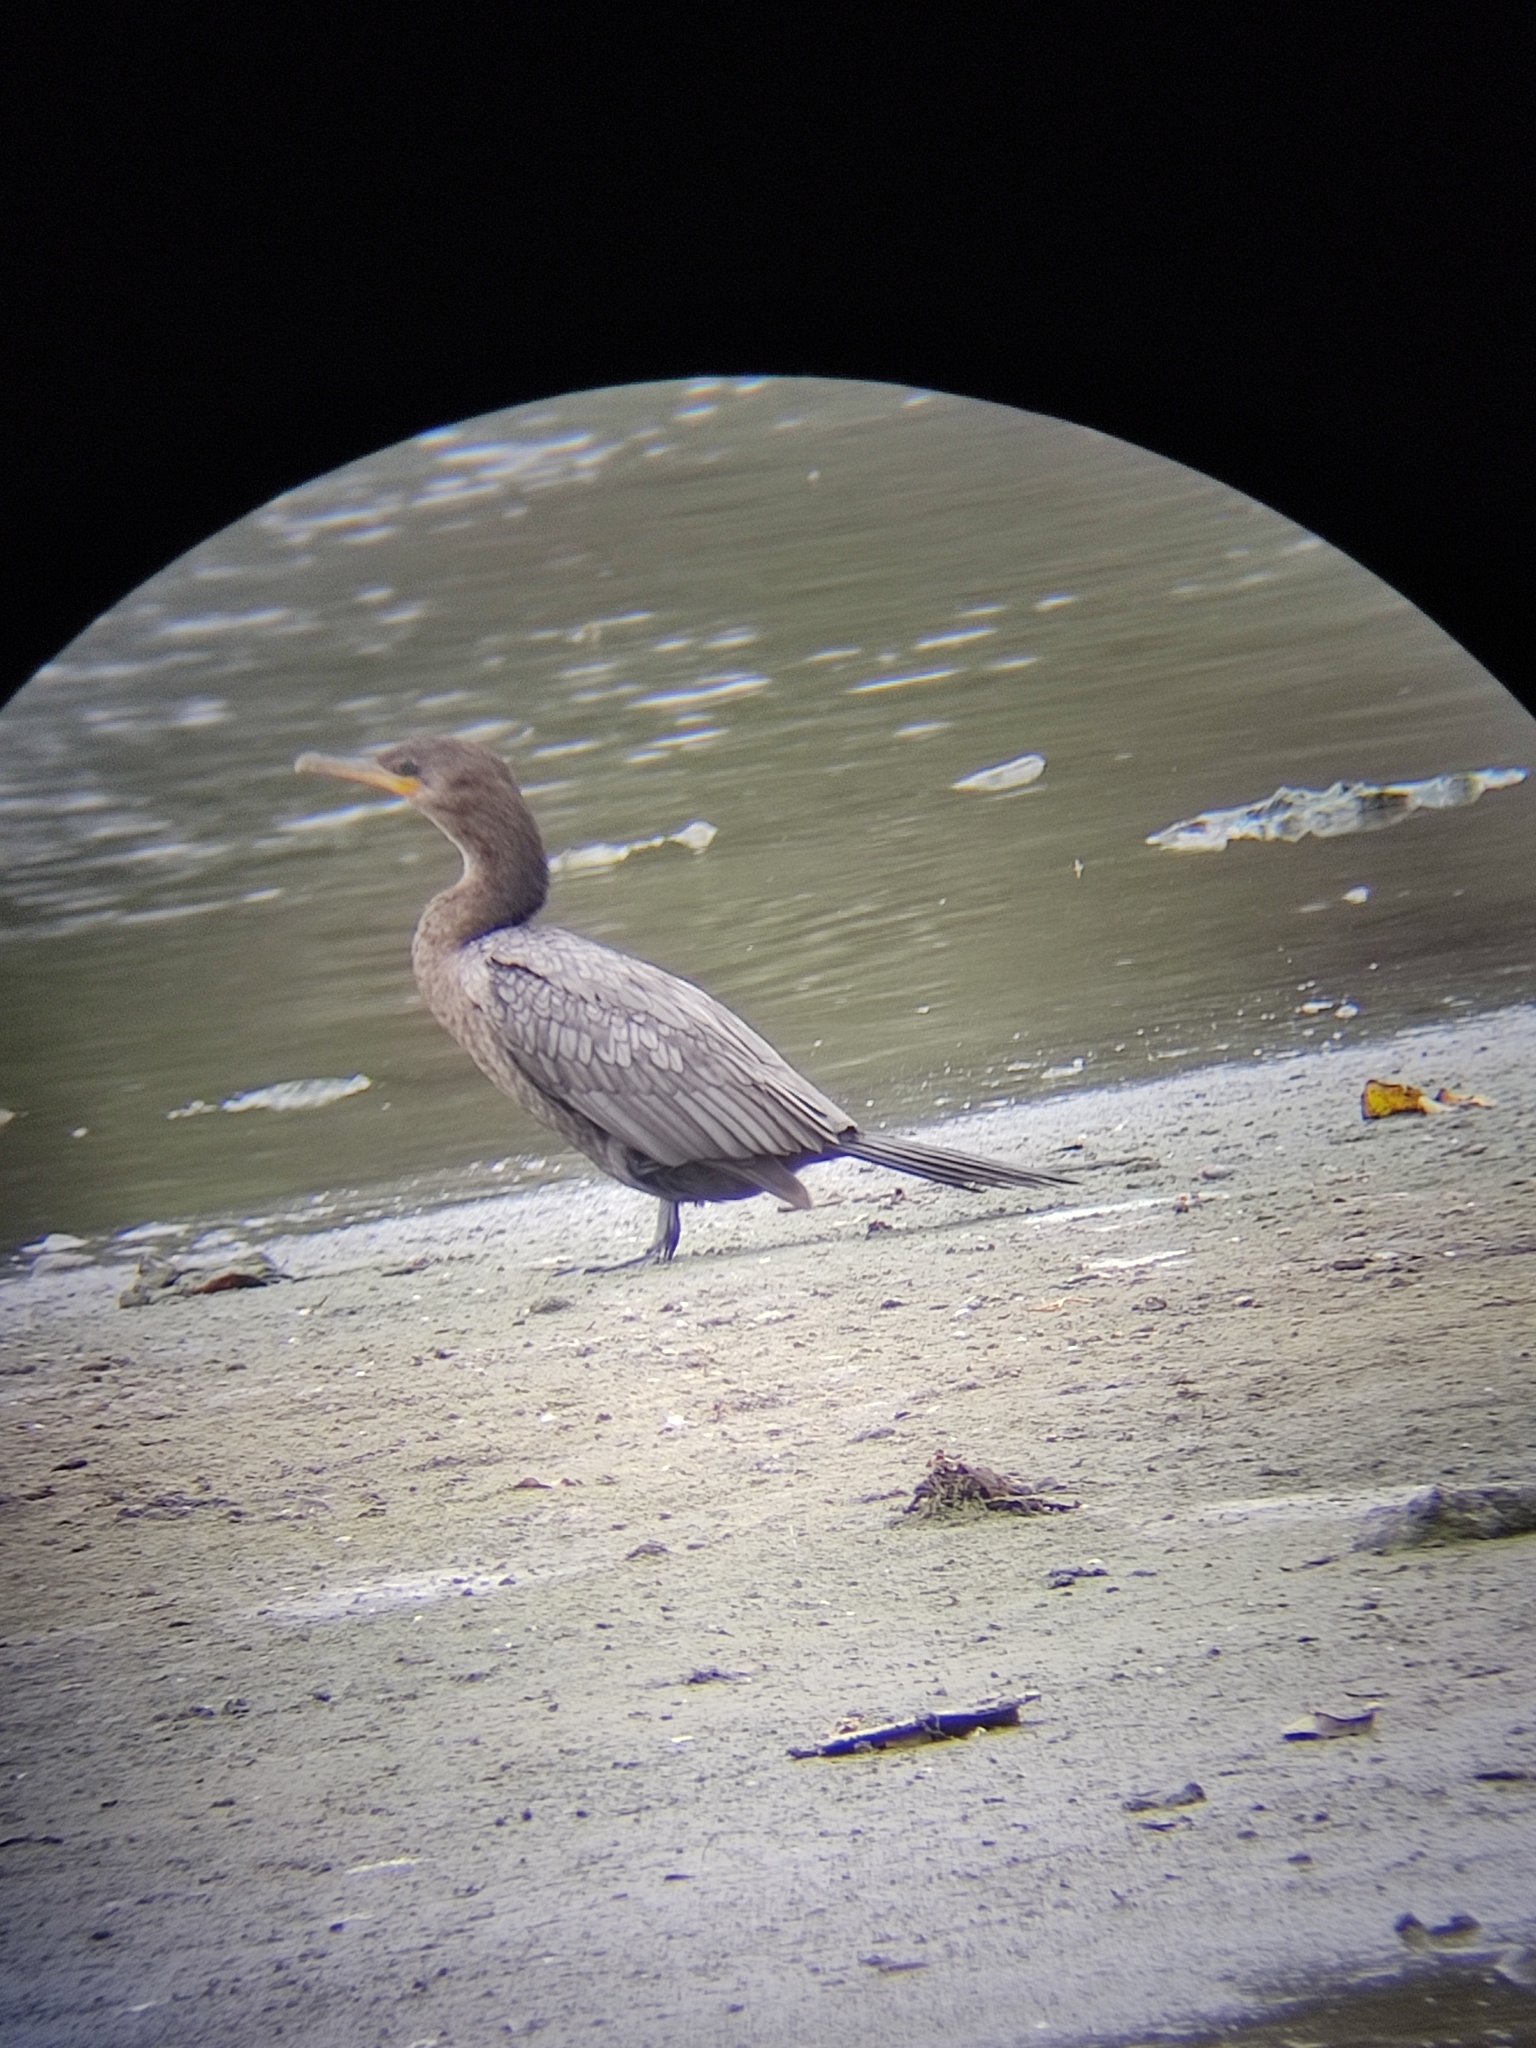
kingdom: Animalia
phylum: Chordata
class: Aves
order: Suliformes
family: Phalacrocoracidae
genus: Phalacrocorax
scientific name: Phalacrocorax brasilianus
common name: Neotropic cormorant
